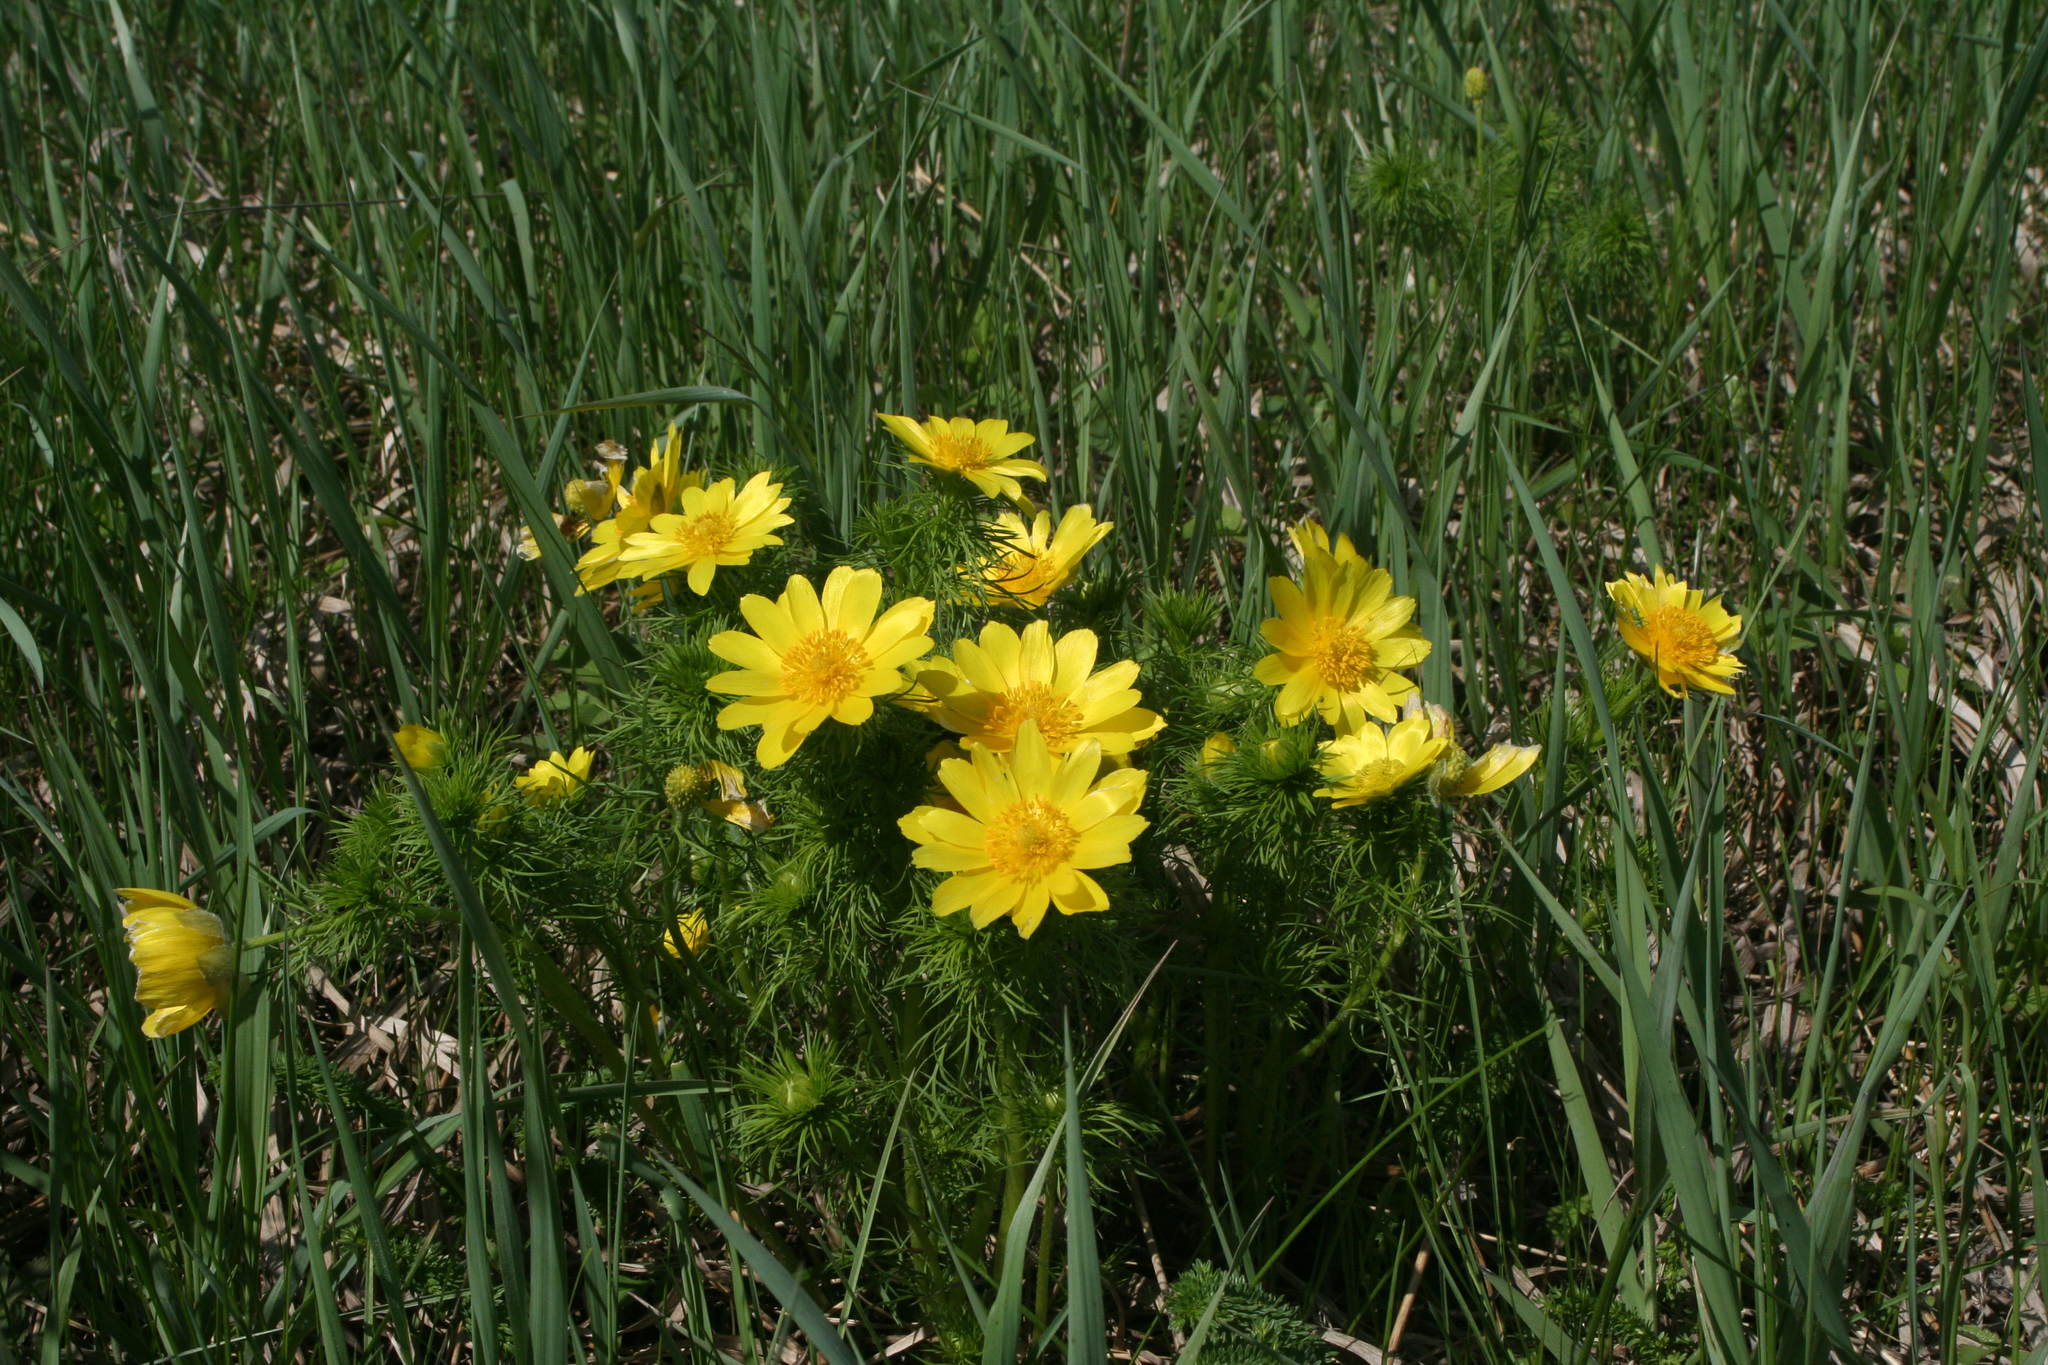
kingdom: Plantae
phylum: Tracheophyta
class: Magnoliopsida
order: Ranunculales
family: Ranunculaceae
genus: Adonis
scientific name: Adonis vernalis
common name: Yellow pheasants-eye
